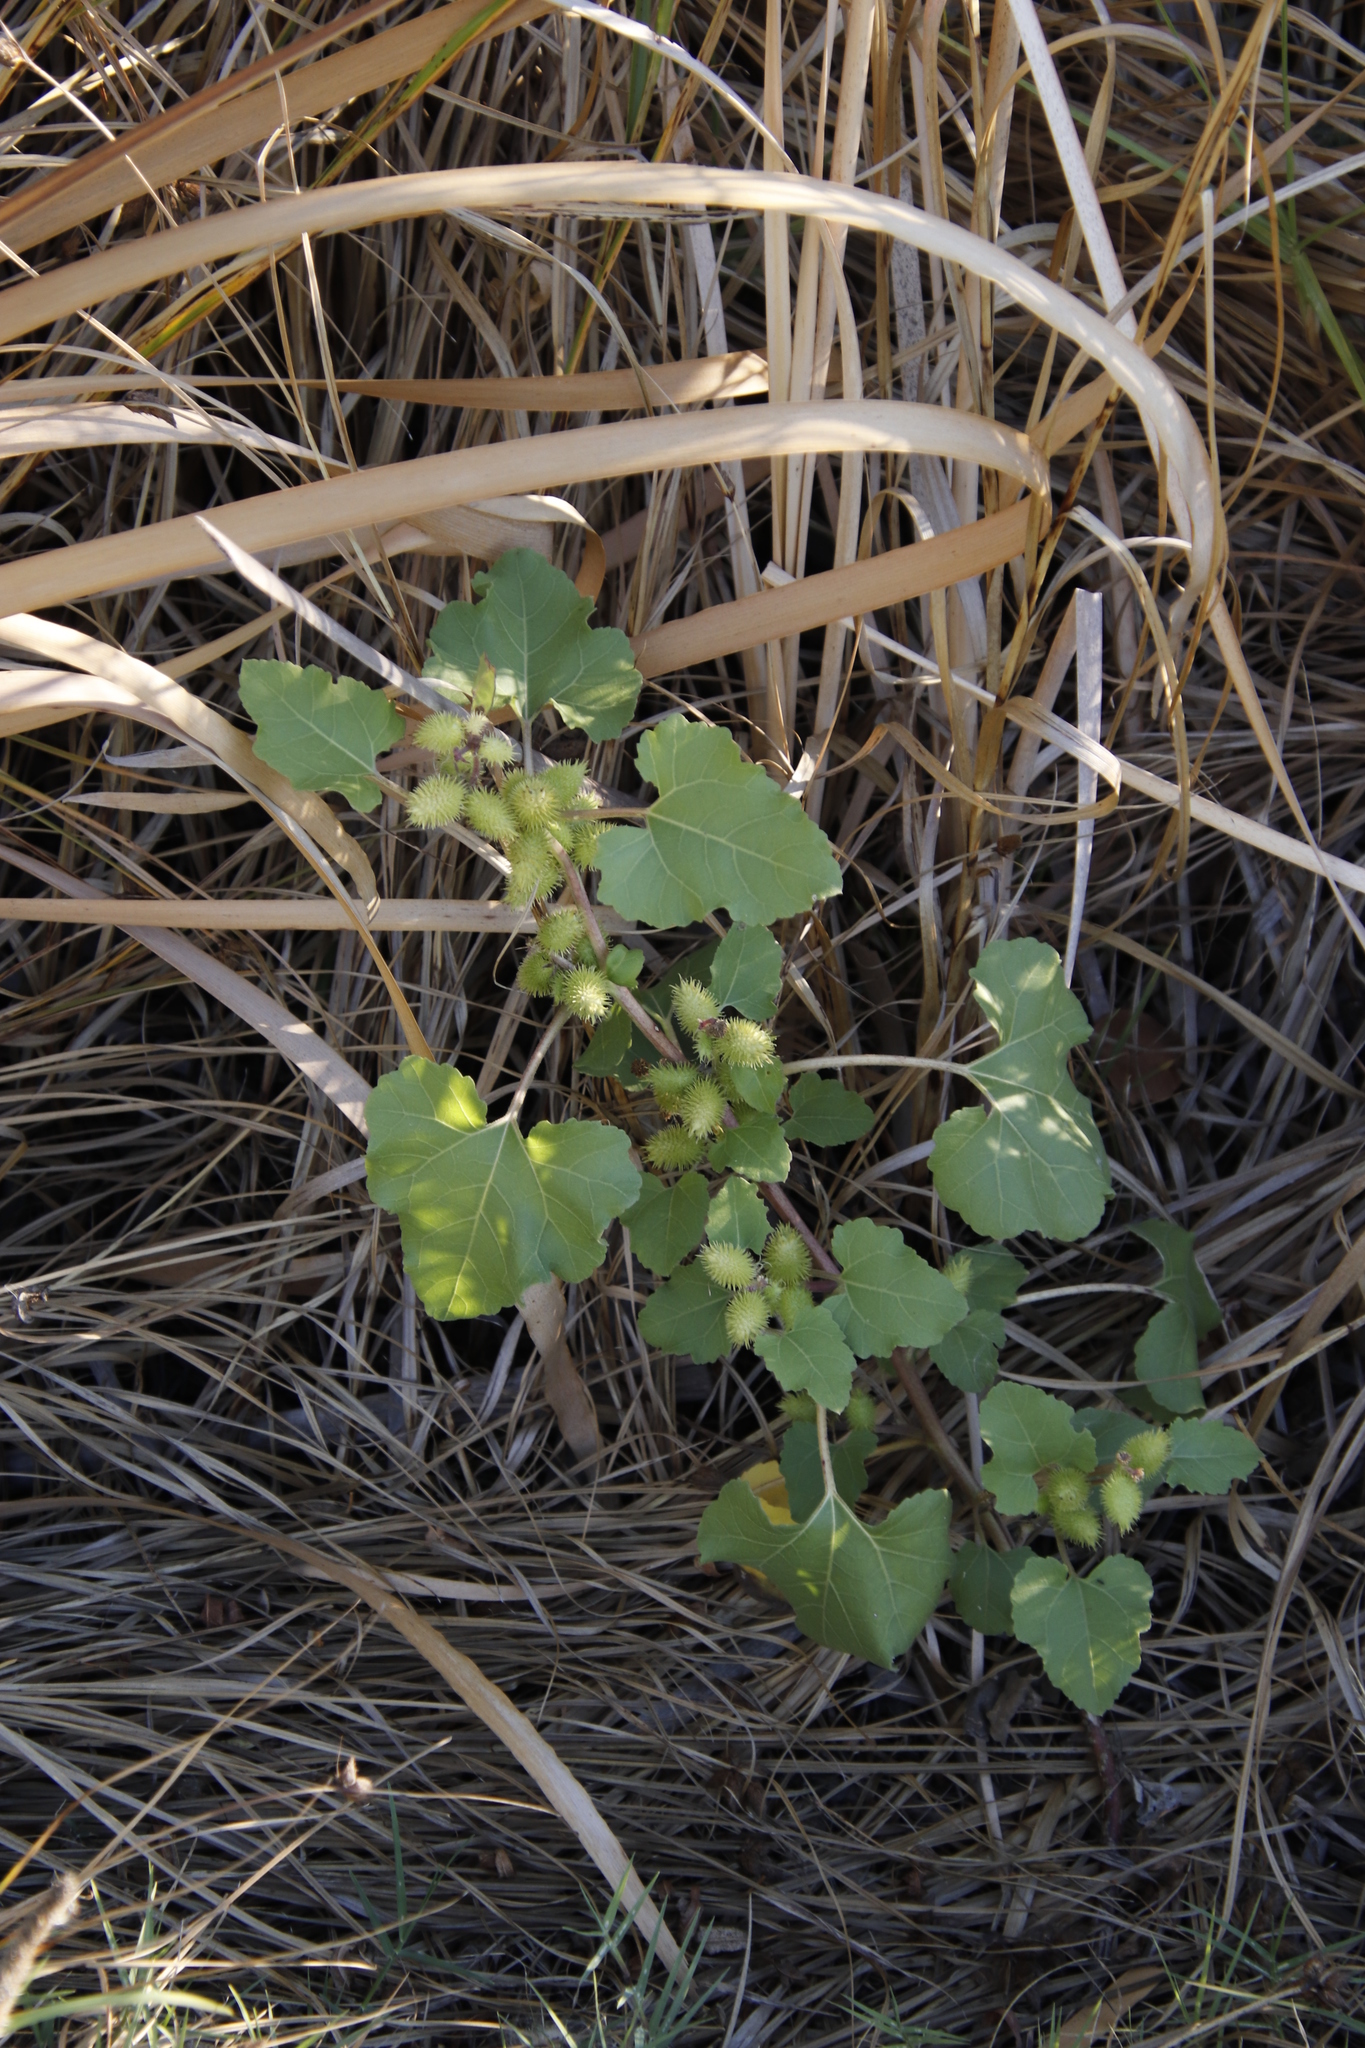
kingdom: Plantae
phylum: Tracheophyta
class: Magnoliopsida
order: Asterales
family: Asteraceae
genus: Xanthium
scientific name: Xanthium strumarium
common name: Rough cocklebur
